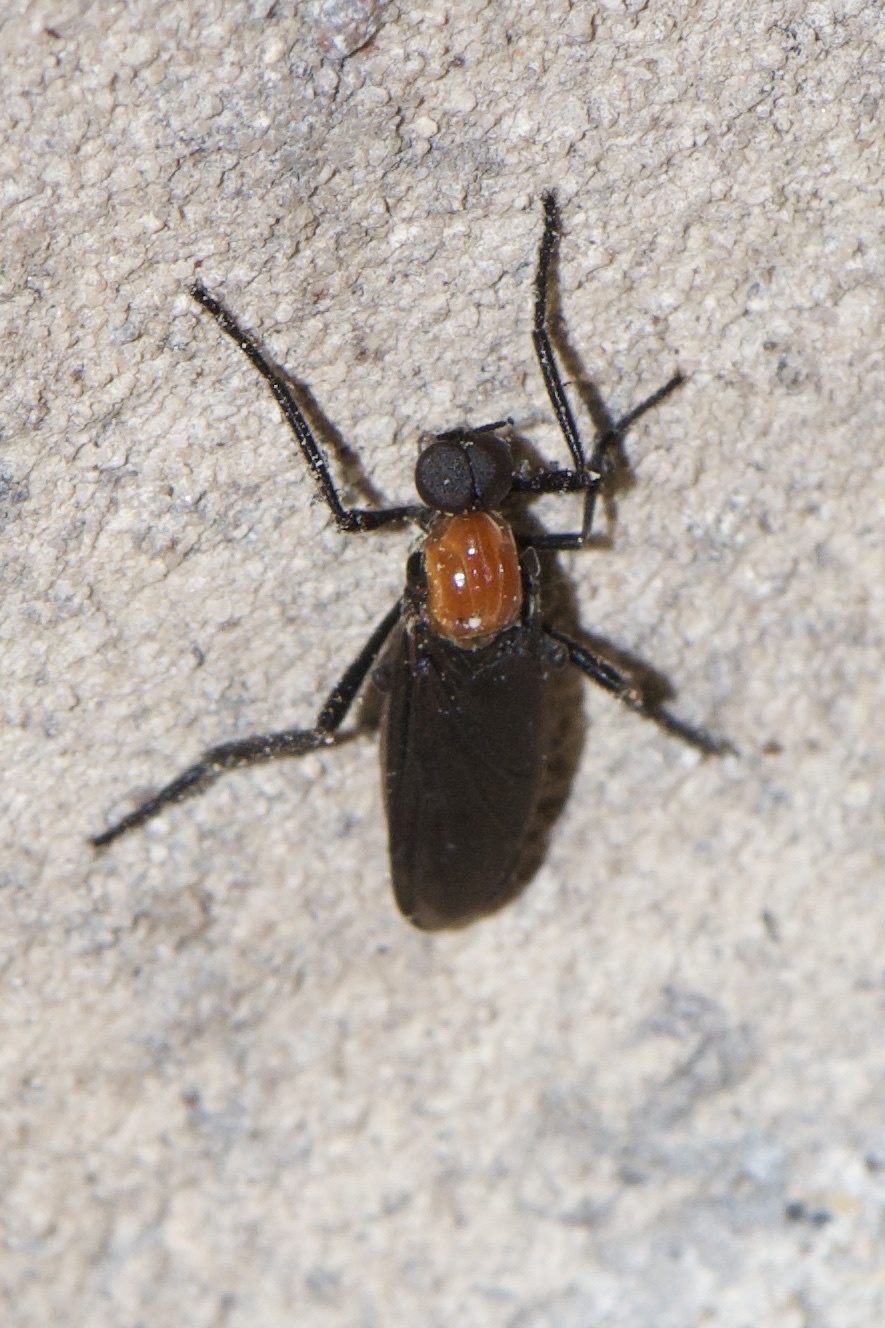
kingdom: Animalia
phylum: Arthropoda
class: Insecta
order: Diptera
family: Bibionidae
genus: Plecia
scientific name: Plecia nearctica
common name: March fly
